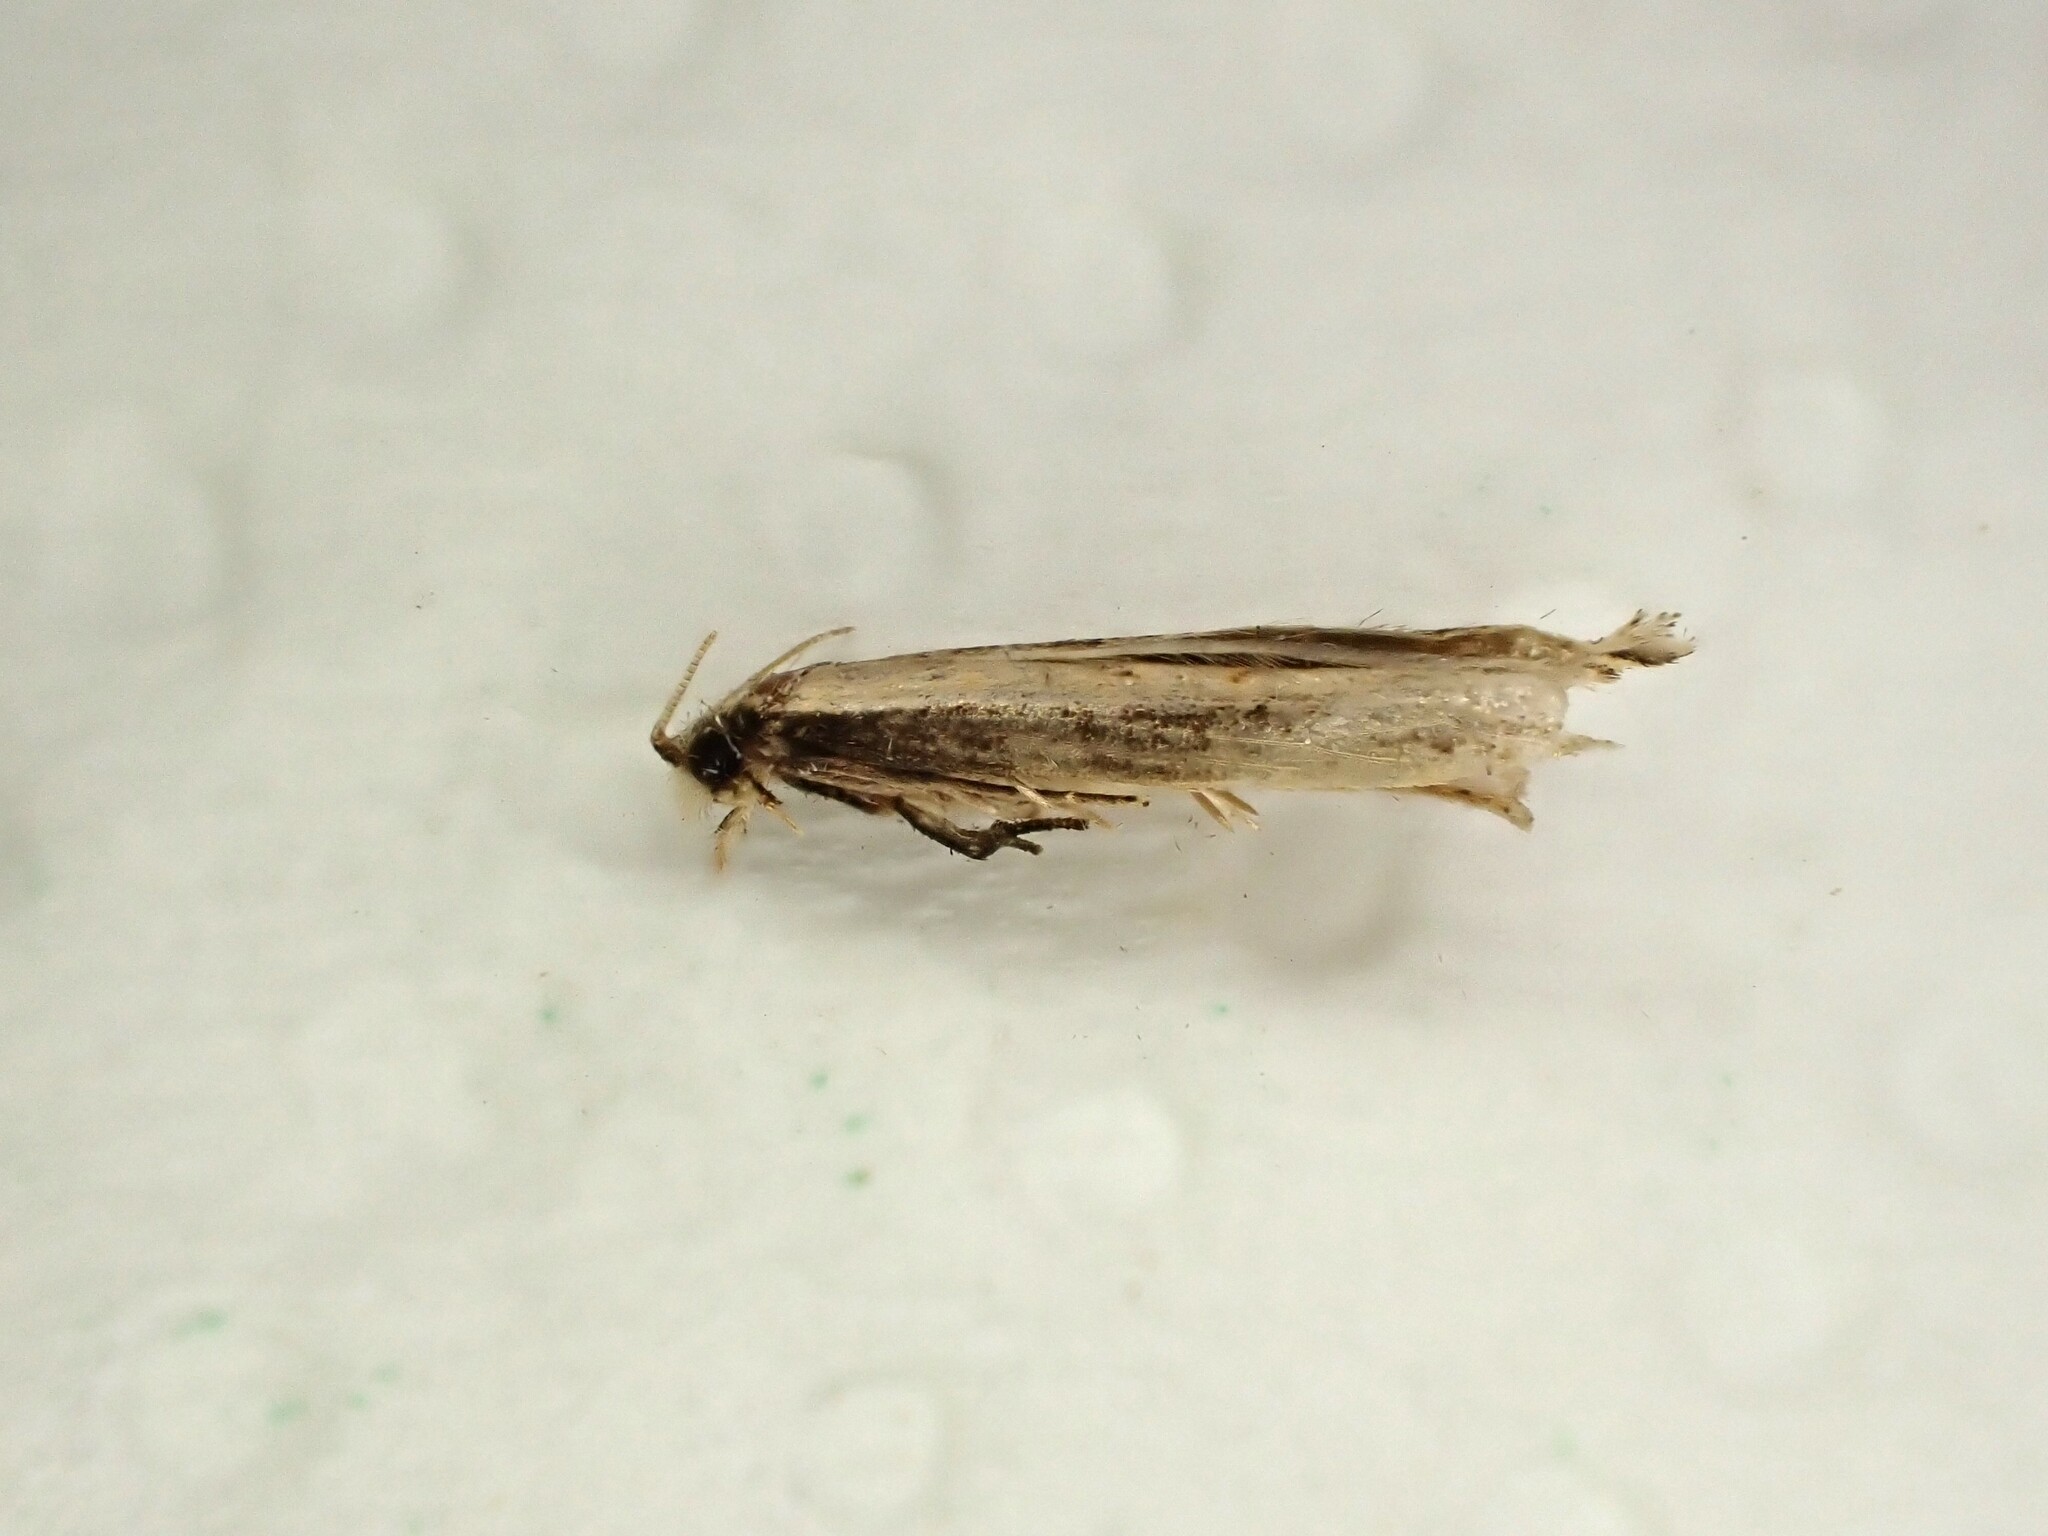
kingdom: Animalia
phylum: Arthropoda
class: Insecta
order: Lepidoptera
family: Tineidae
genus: Erechthias
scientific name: Erechthias terminella
